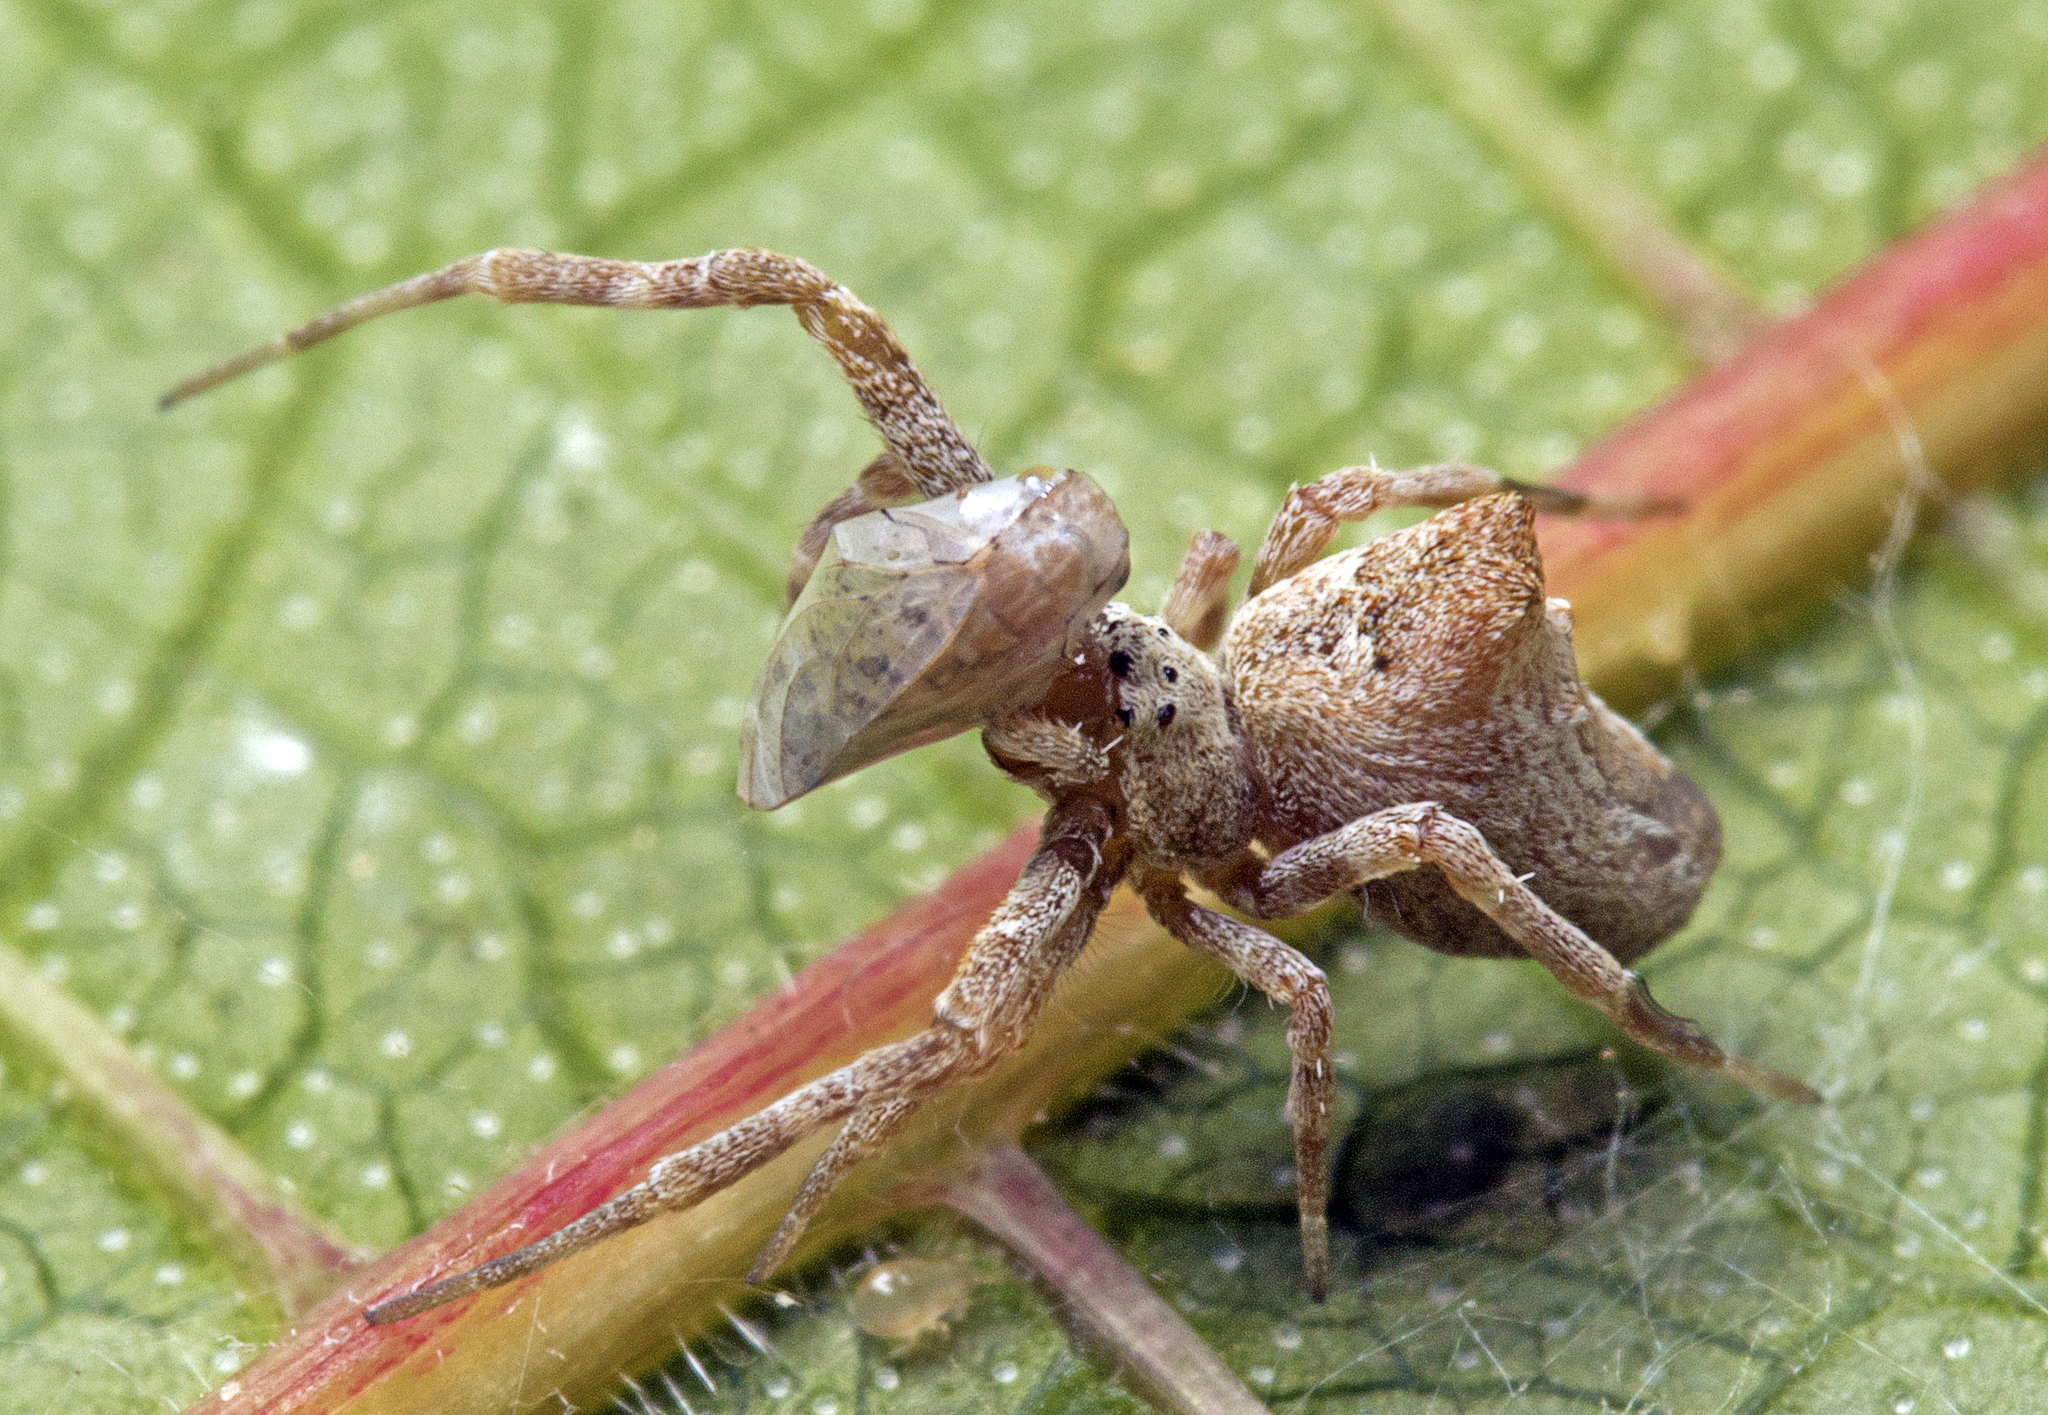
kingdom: Animalia
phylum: Arthropoda
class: Arachnida
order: Araneae
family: Uloboridae
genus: Philoponella
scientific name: Philoponella congregabilis
